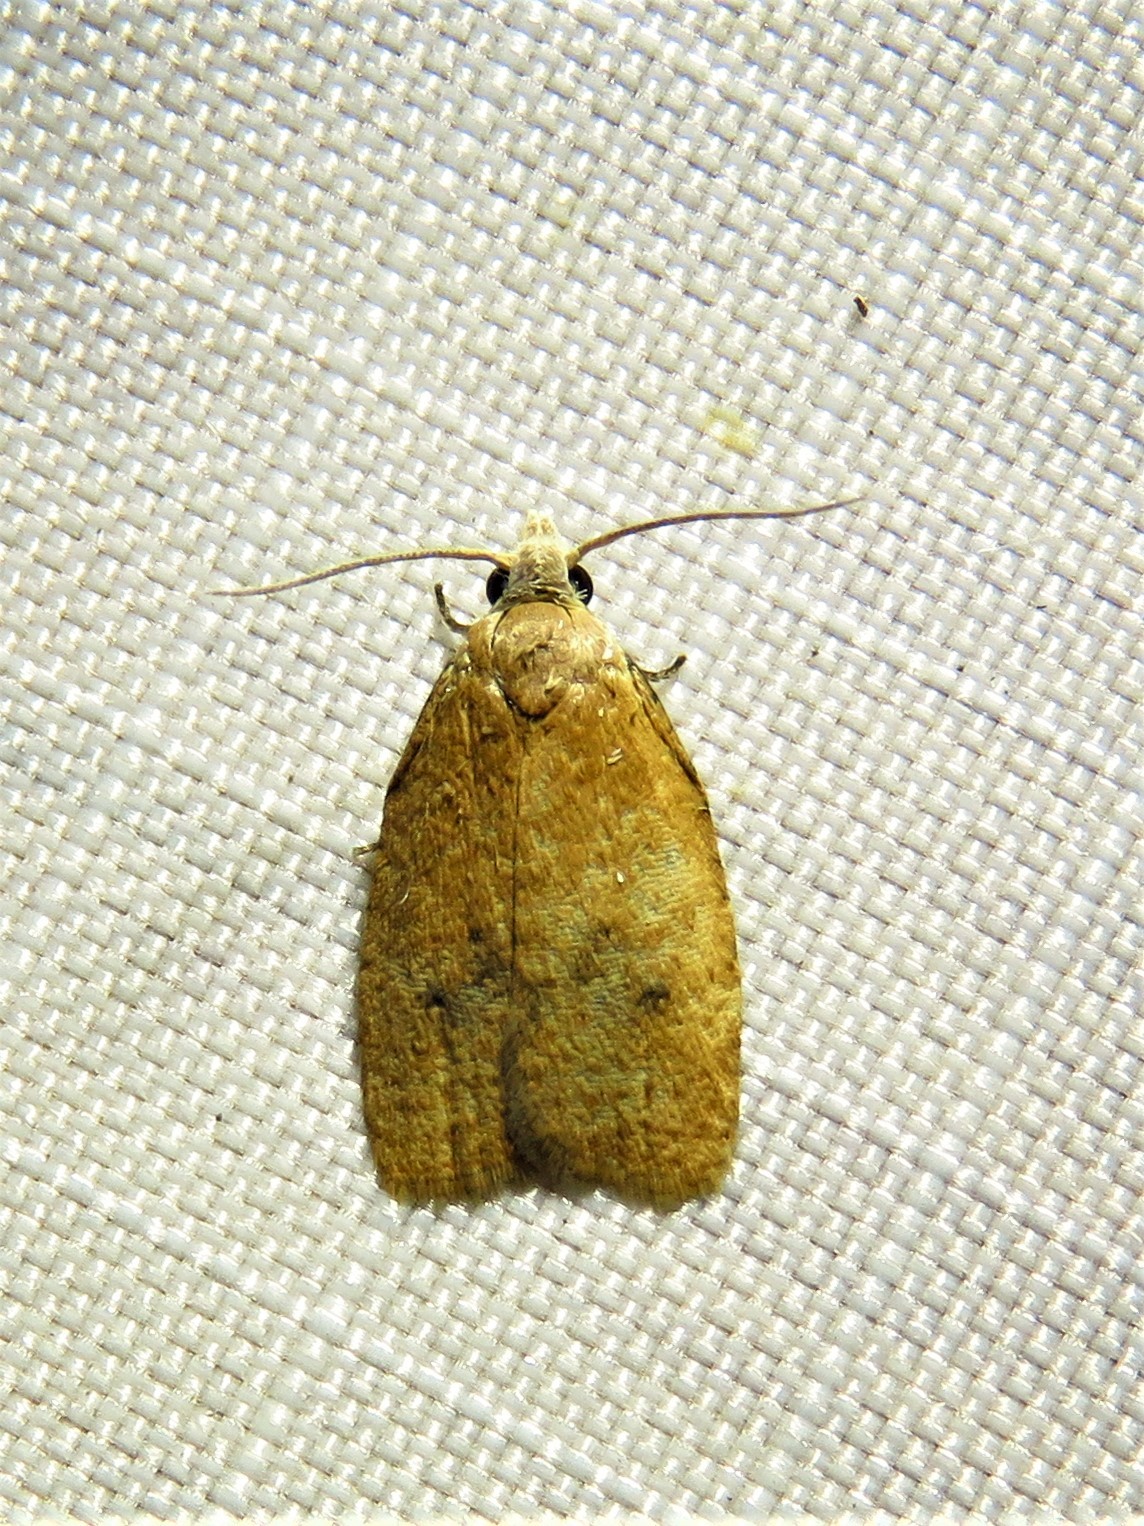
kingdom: Animalia
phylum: Arthropoda
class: Insecta
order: Lepidoptera
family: Tortricidae
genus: Sparganothoides
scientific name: Sparganothoides lentiginosana
